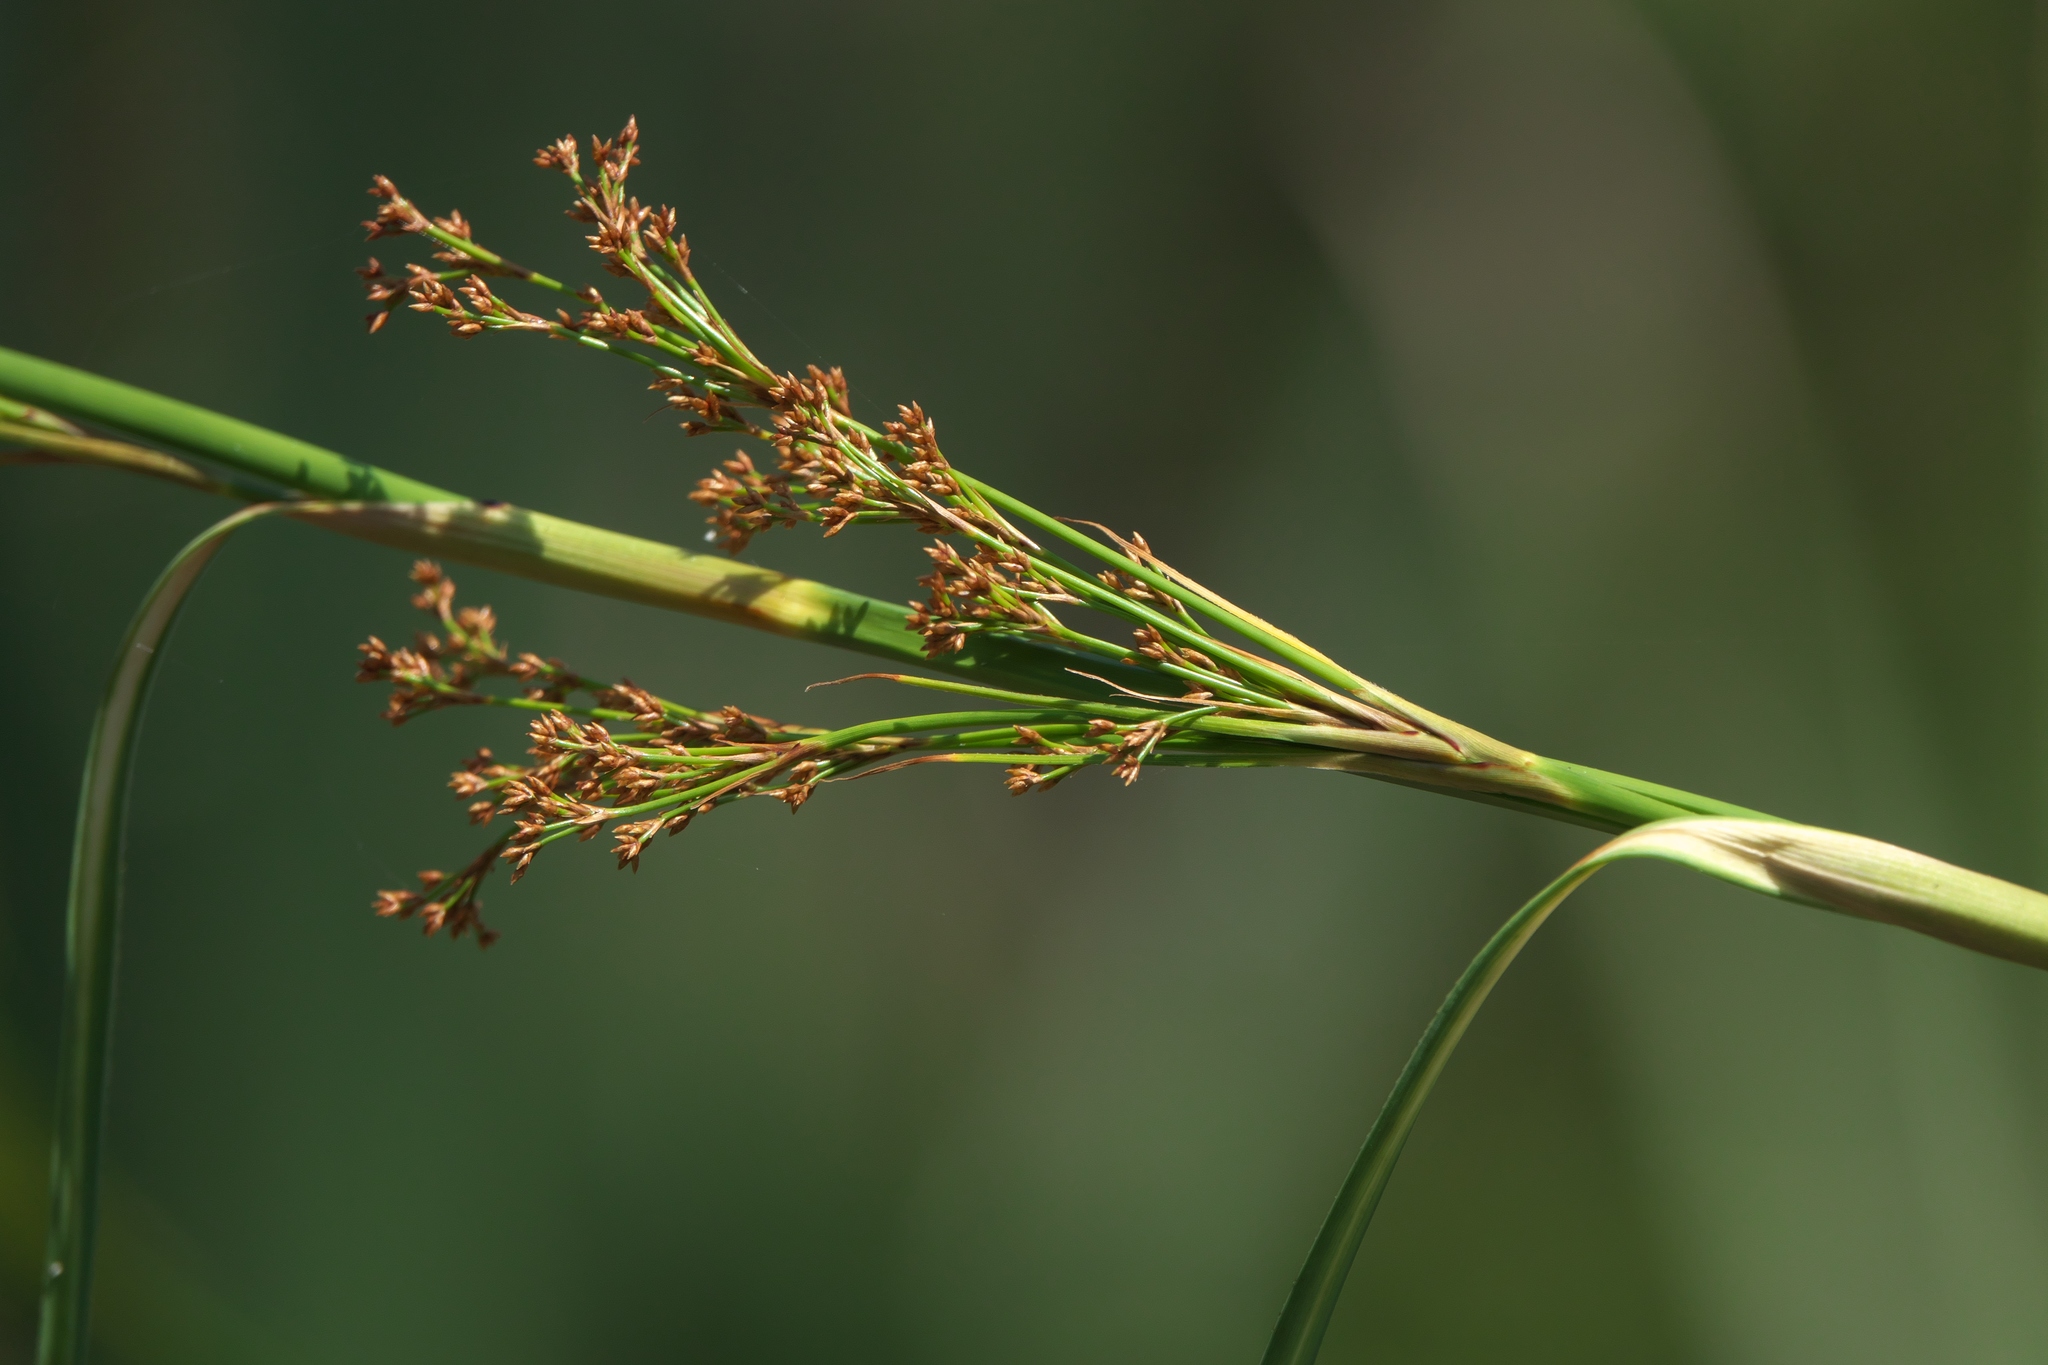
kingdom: Plantae
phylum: Tracheophyta
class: Liliopsida
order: Poales
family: Cyperaceae
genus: Cladium
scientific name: Cladium mariscus
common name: Great fen-sedge
